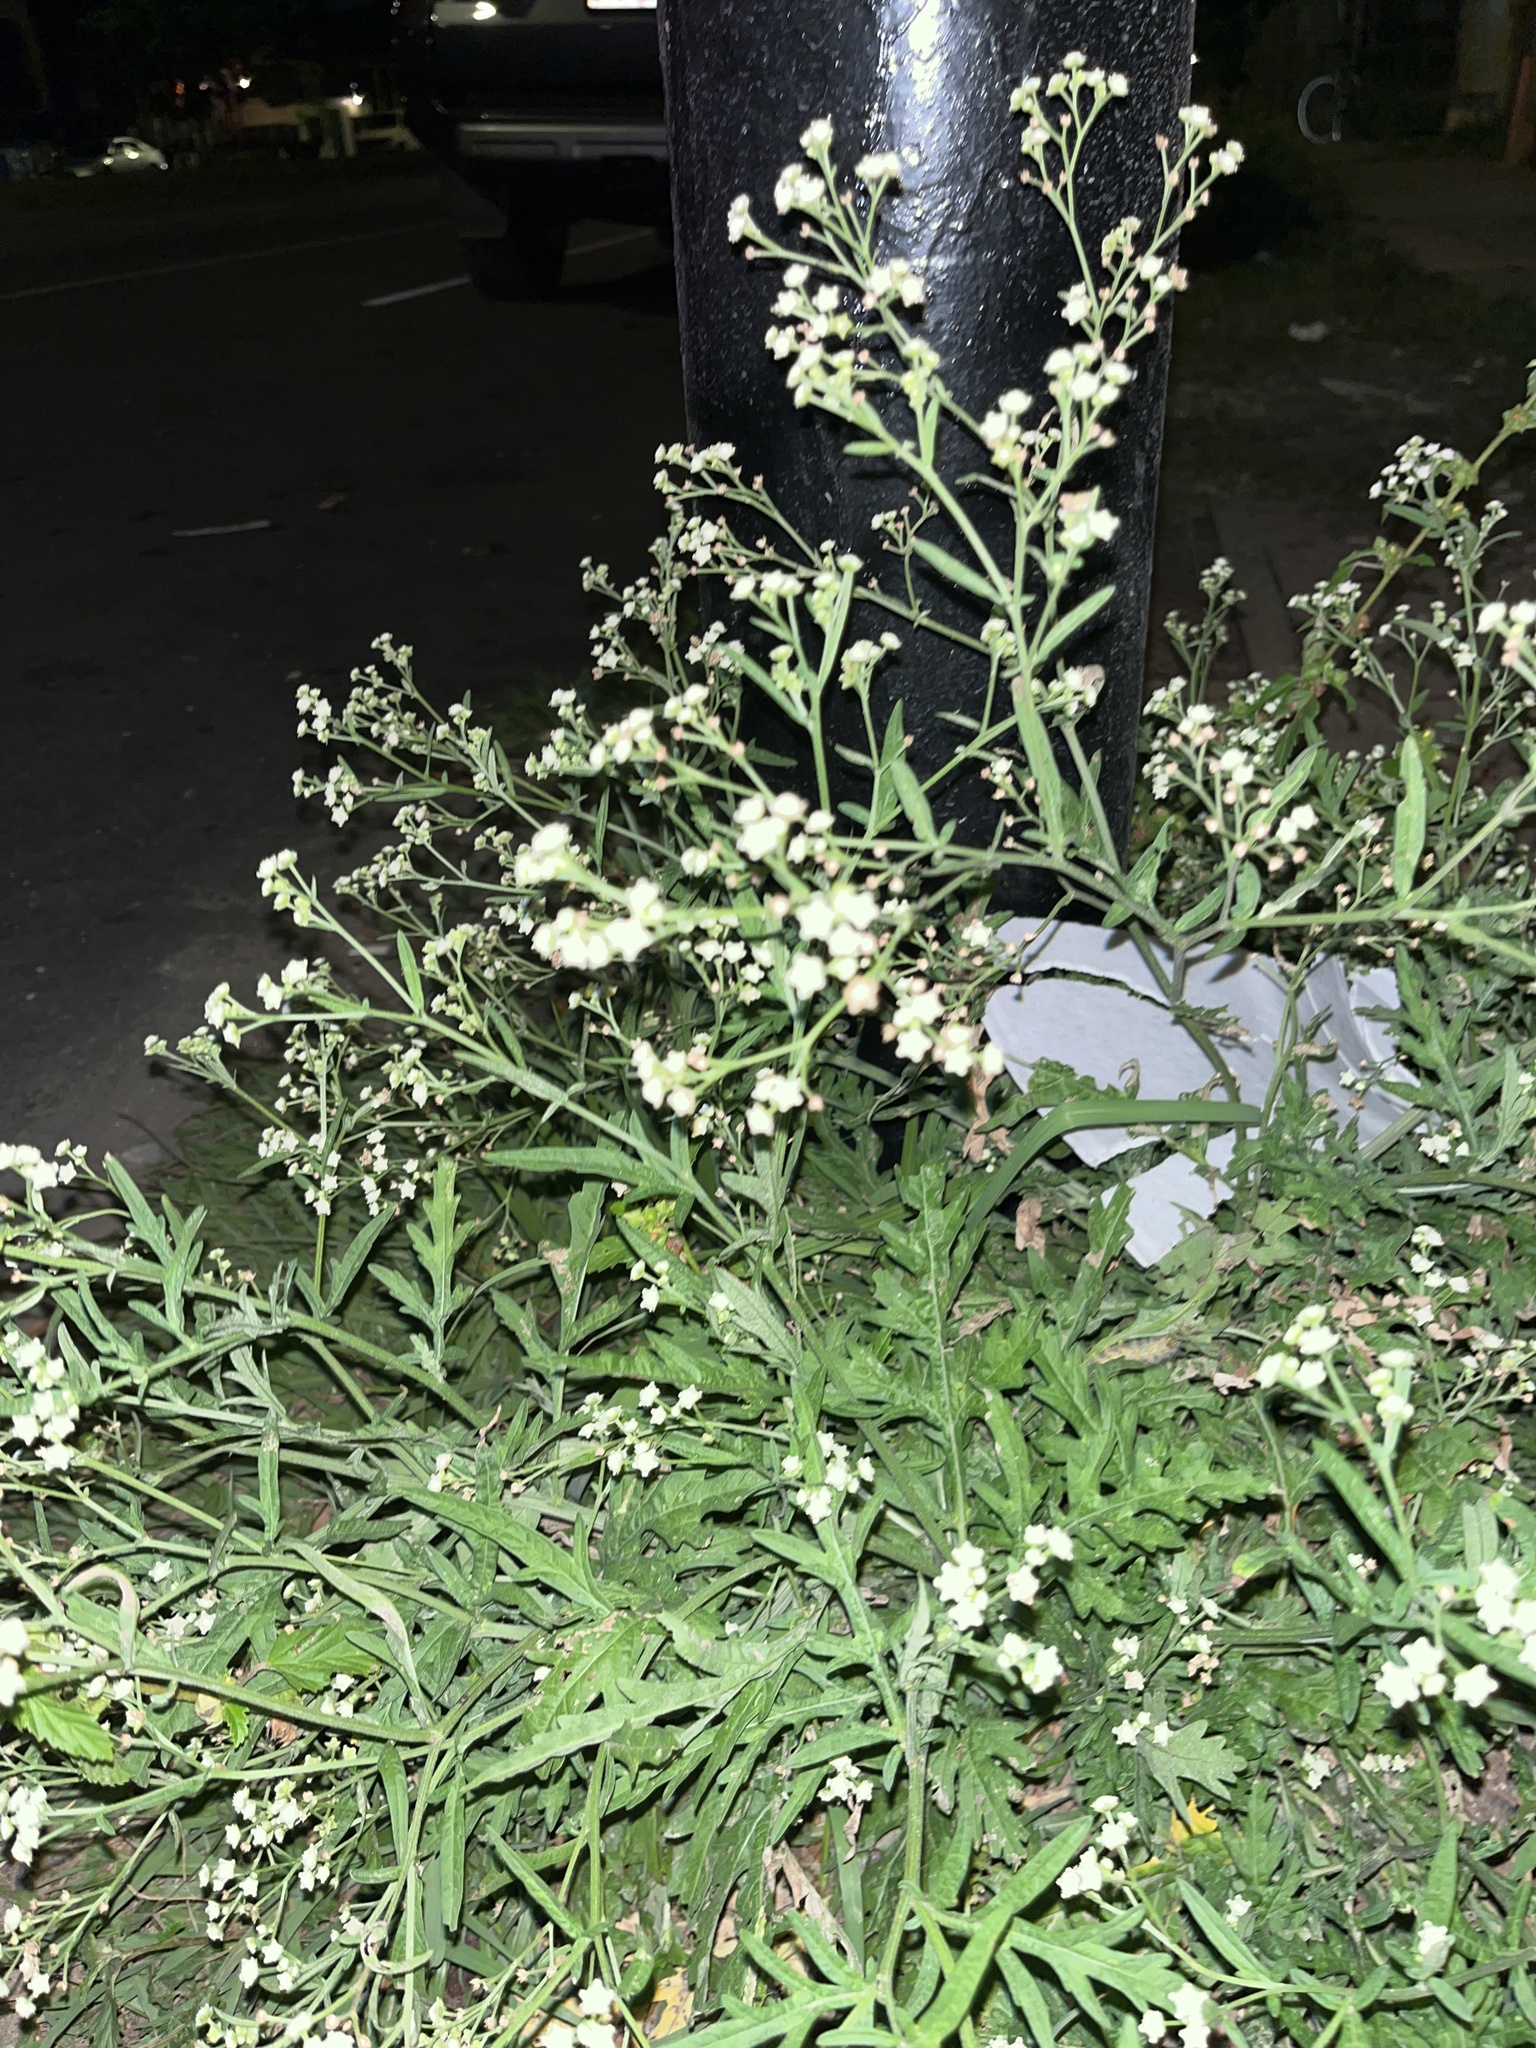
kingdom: Plantae
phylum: Tracheophyta
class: Magnoliopsida
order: Asterales
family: Asteraceae
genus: Parthenium
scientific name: Parthenium hysterophorus
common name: Santa maria feverfew
